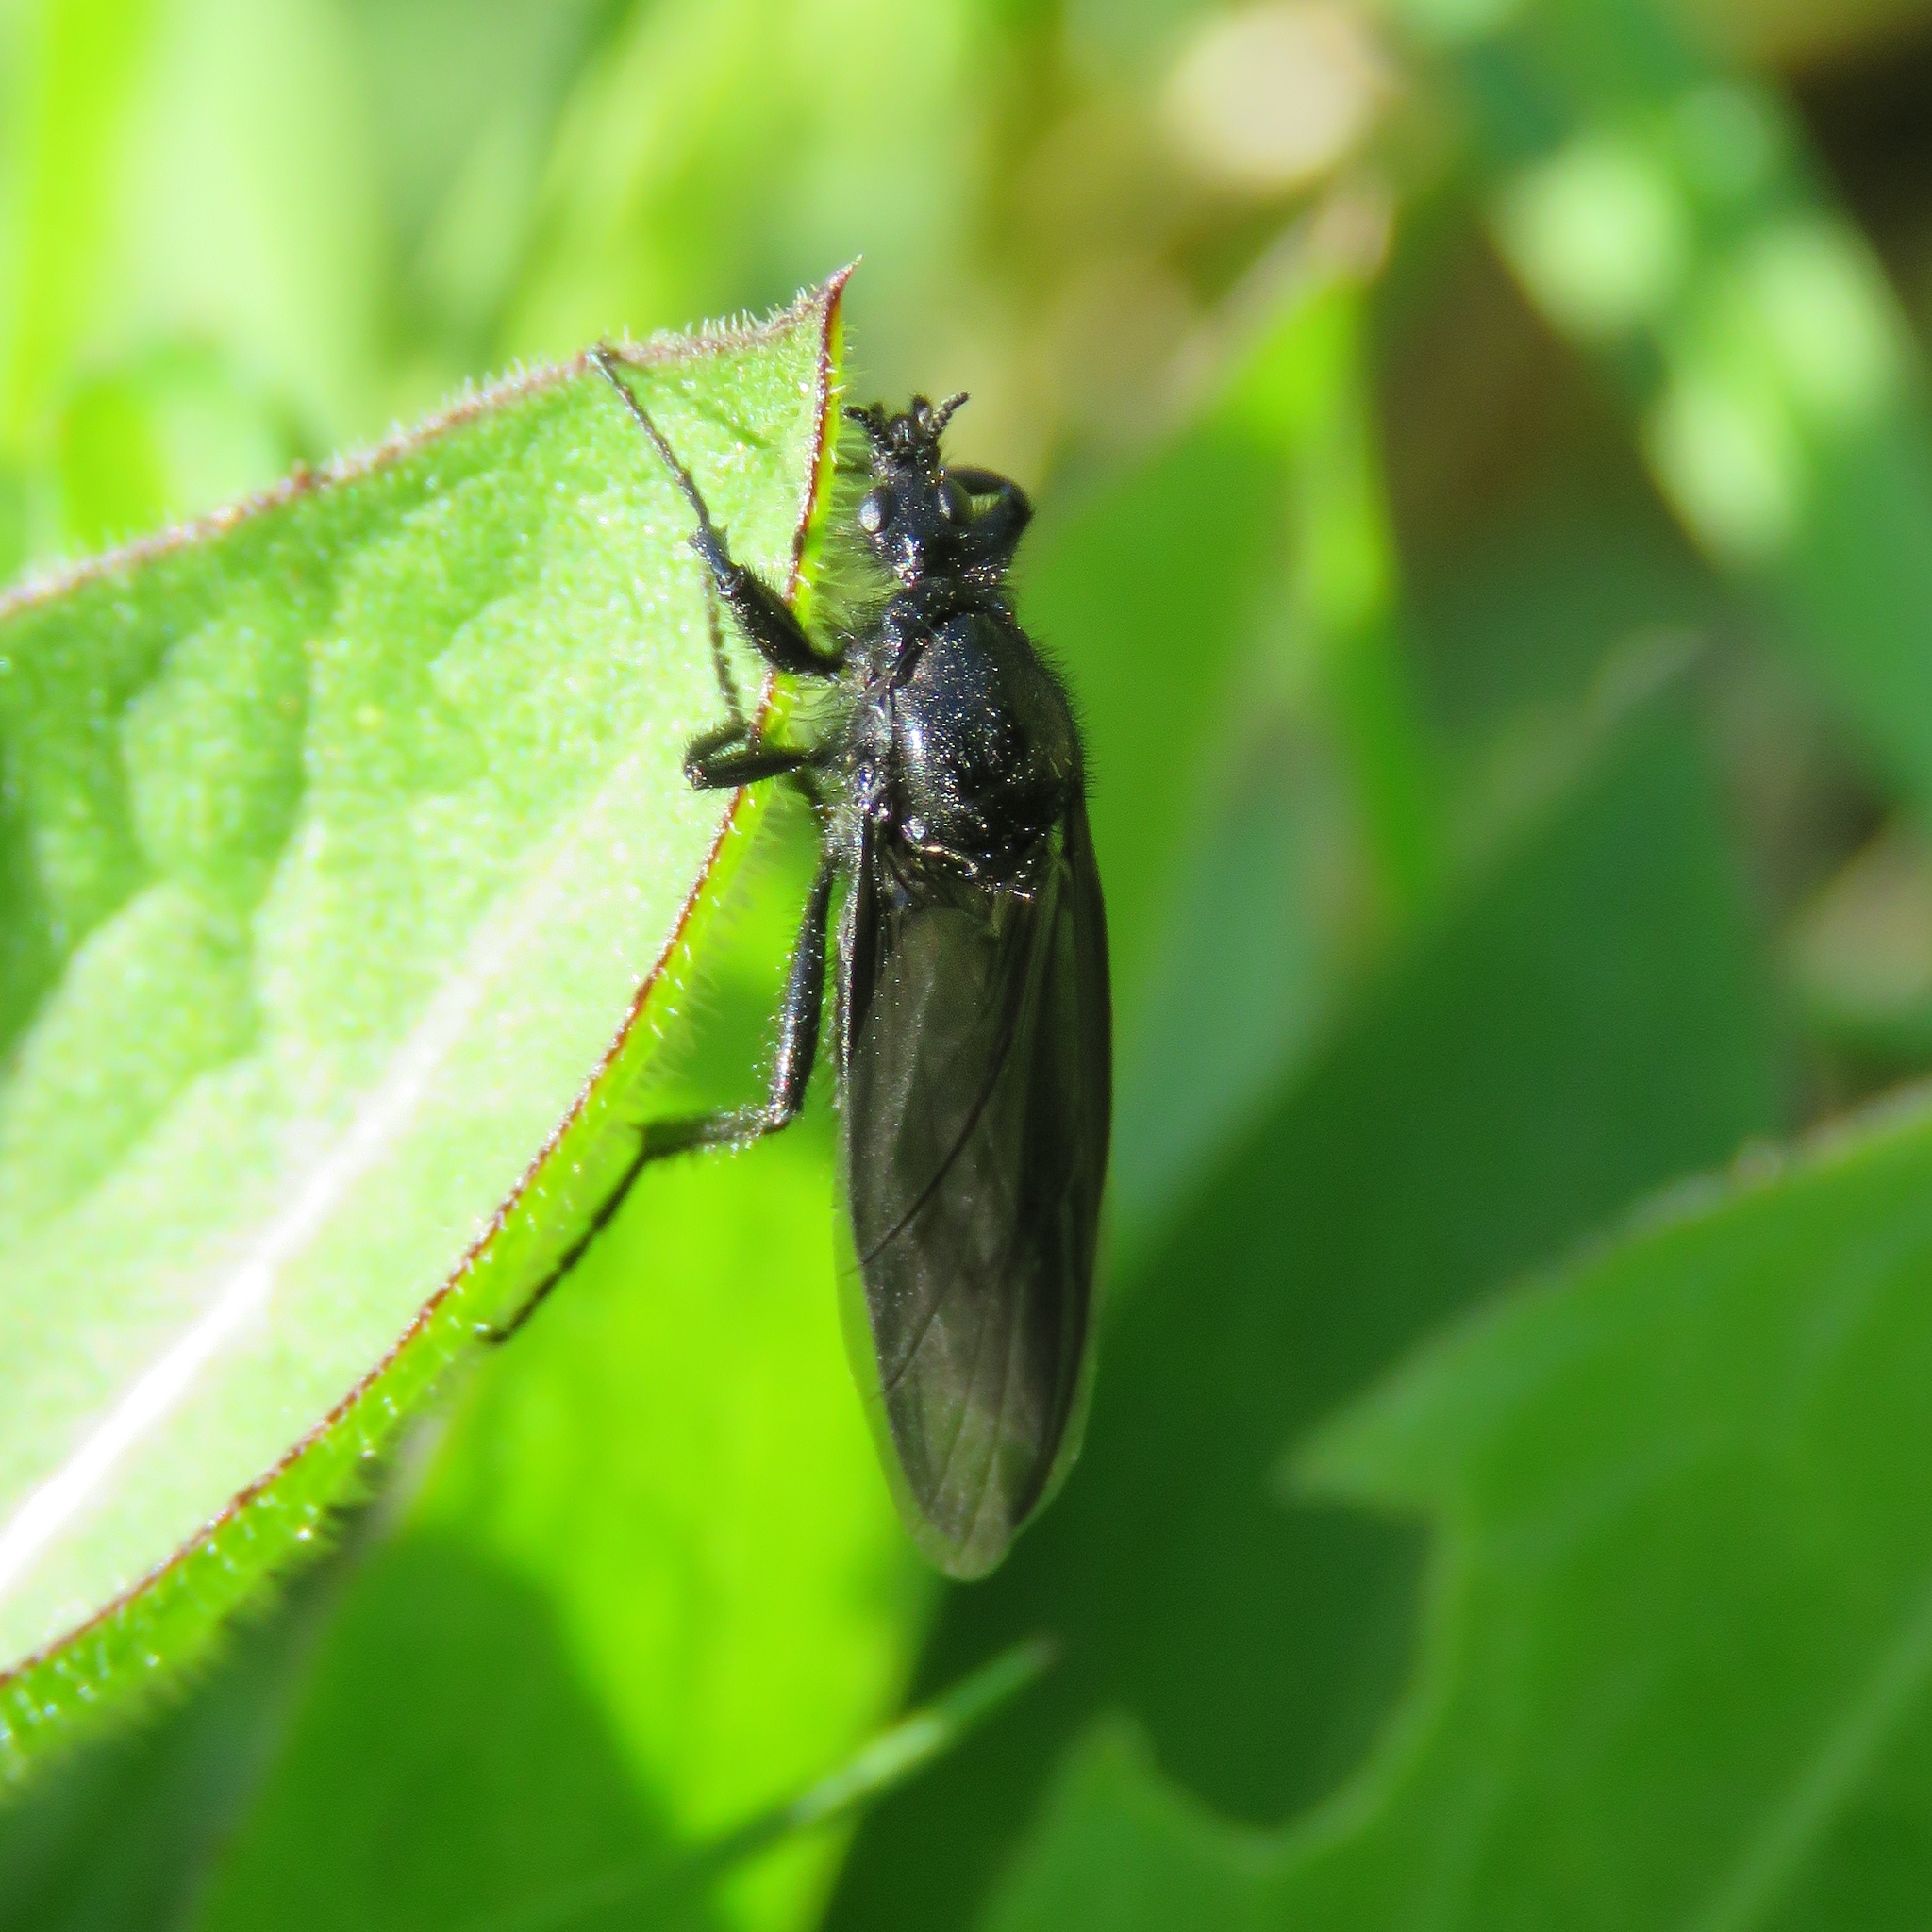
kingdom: Animalia
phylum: Arthropoda
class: Insecta
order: Diptera
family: Bibionidae
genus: Bibio
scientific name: Bibio marci
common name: St marks fly
